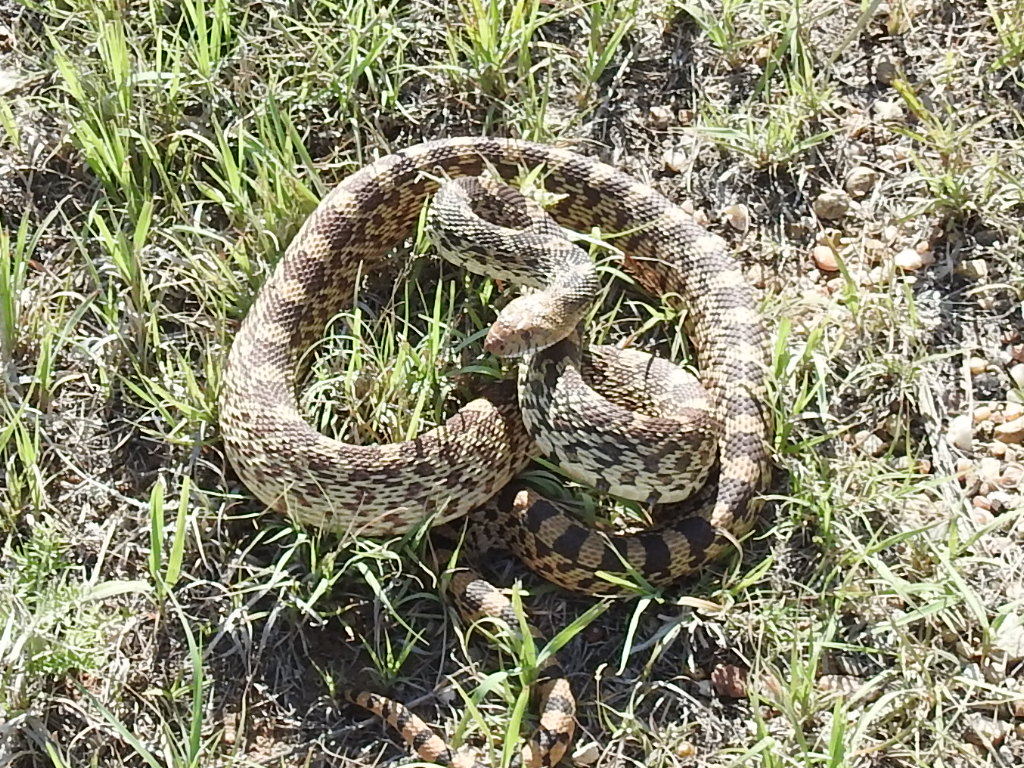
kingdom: Animalia
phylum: Chordata
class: Squamata
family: Colubridae
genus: Pituophis
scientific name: Pituophis catenifer
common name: Gopher snake
